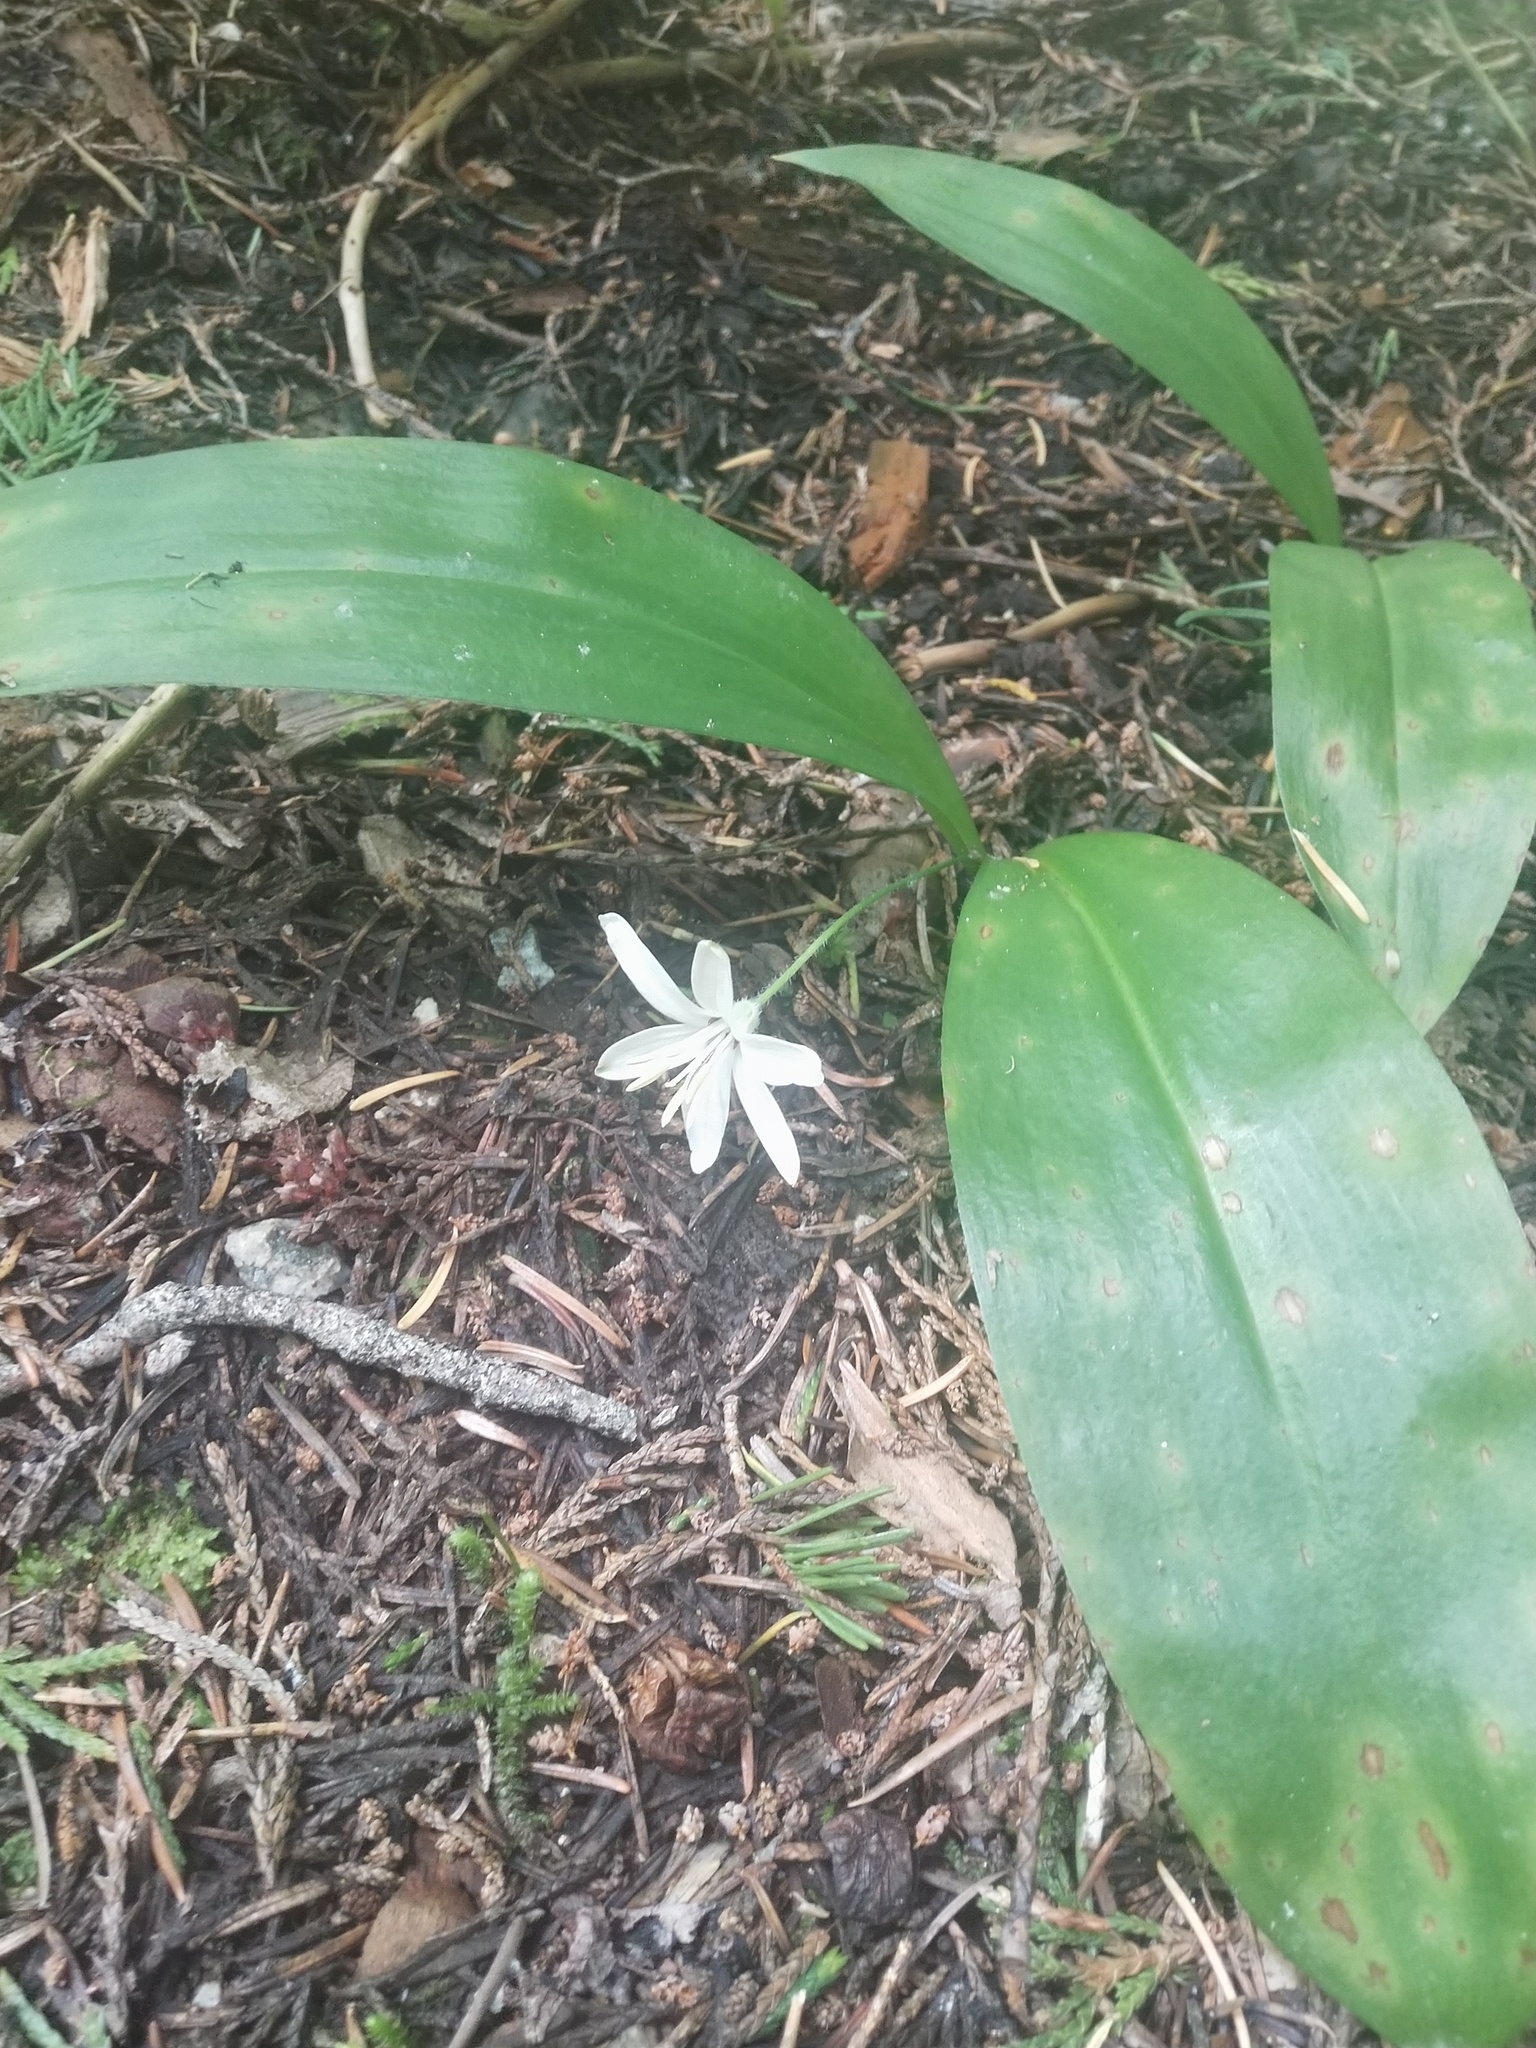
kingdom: Plantae
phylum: Tracheophyta
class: Liliopsida
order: Liliales
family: Liliaceae
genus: Clintonia
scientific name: Clintonia uniflora
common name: Queen's cup
